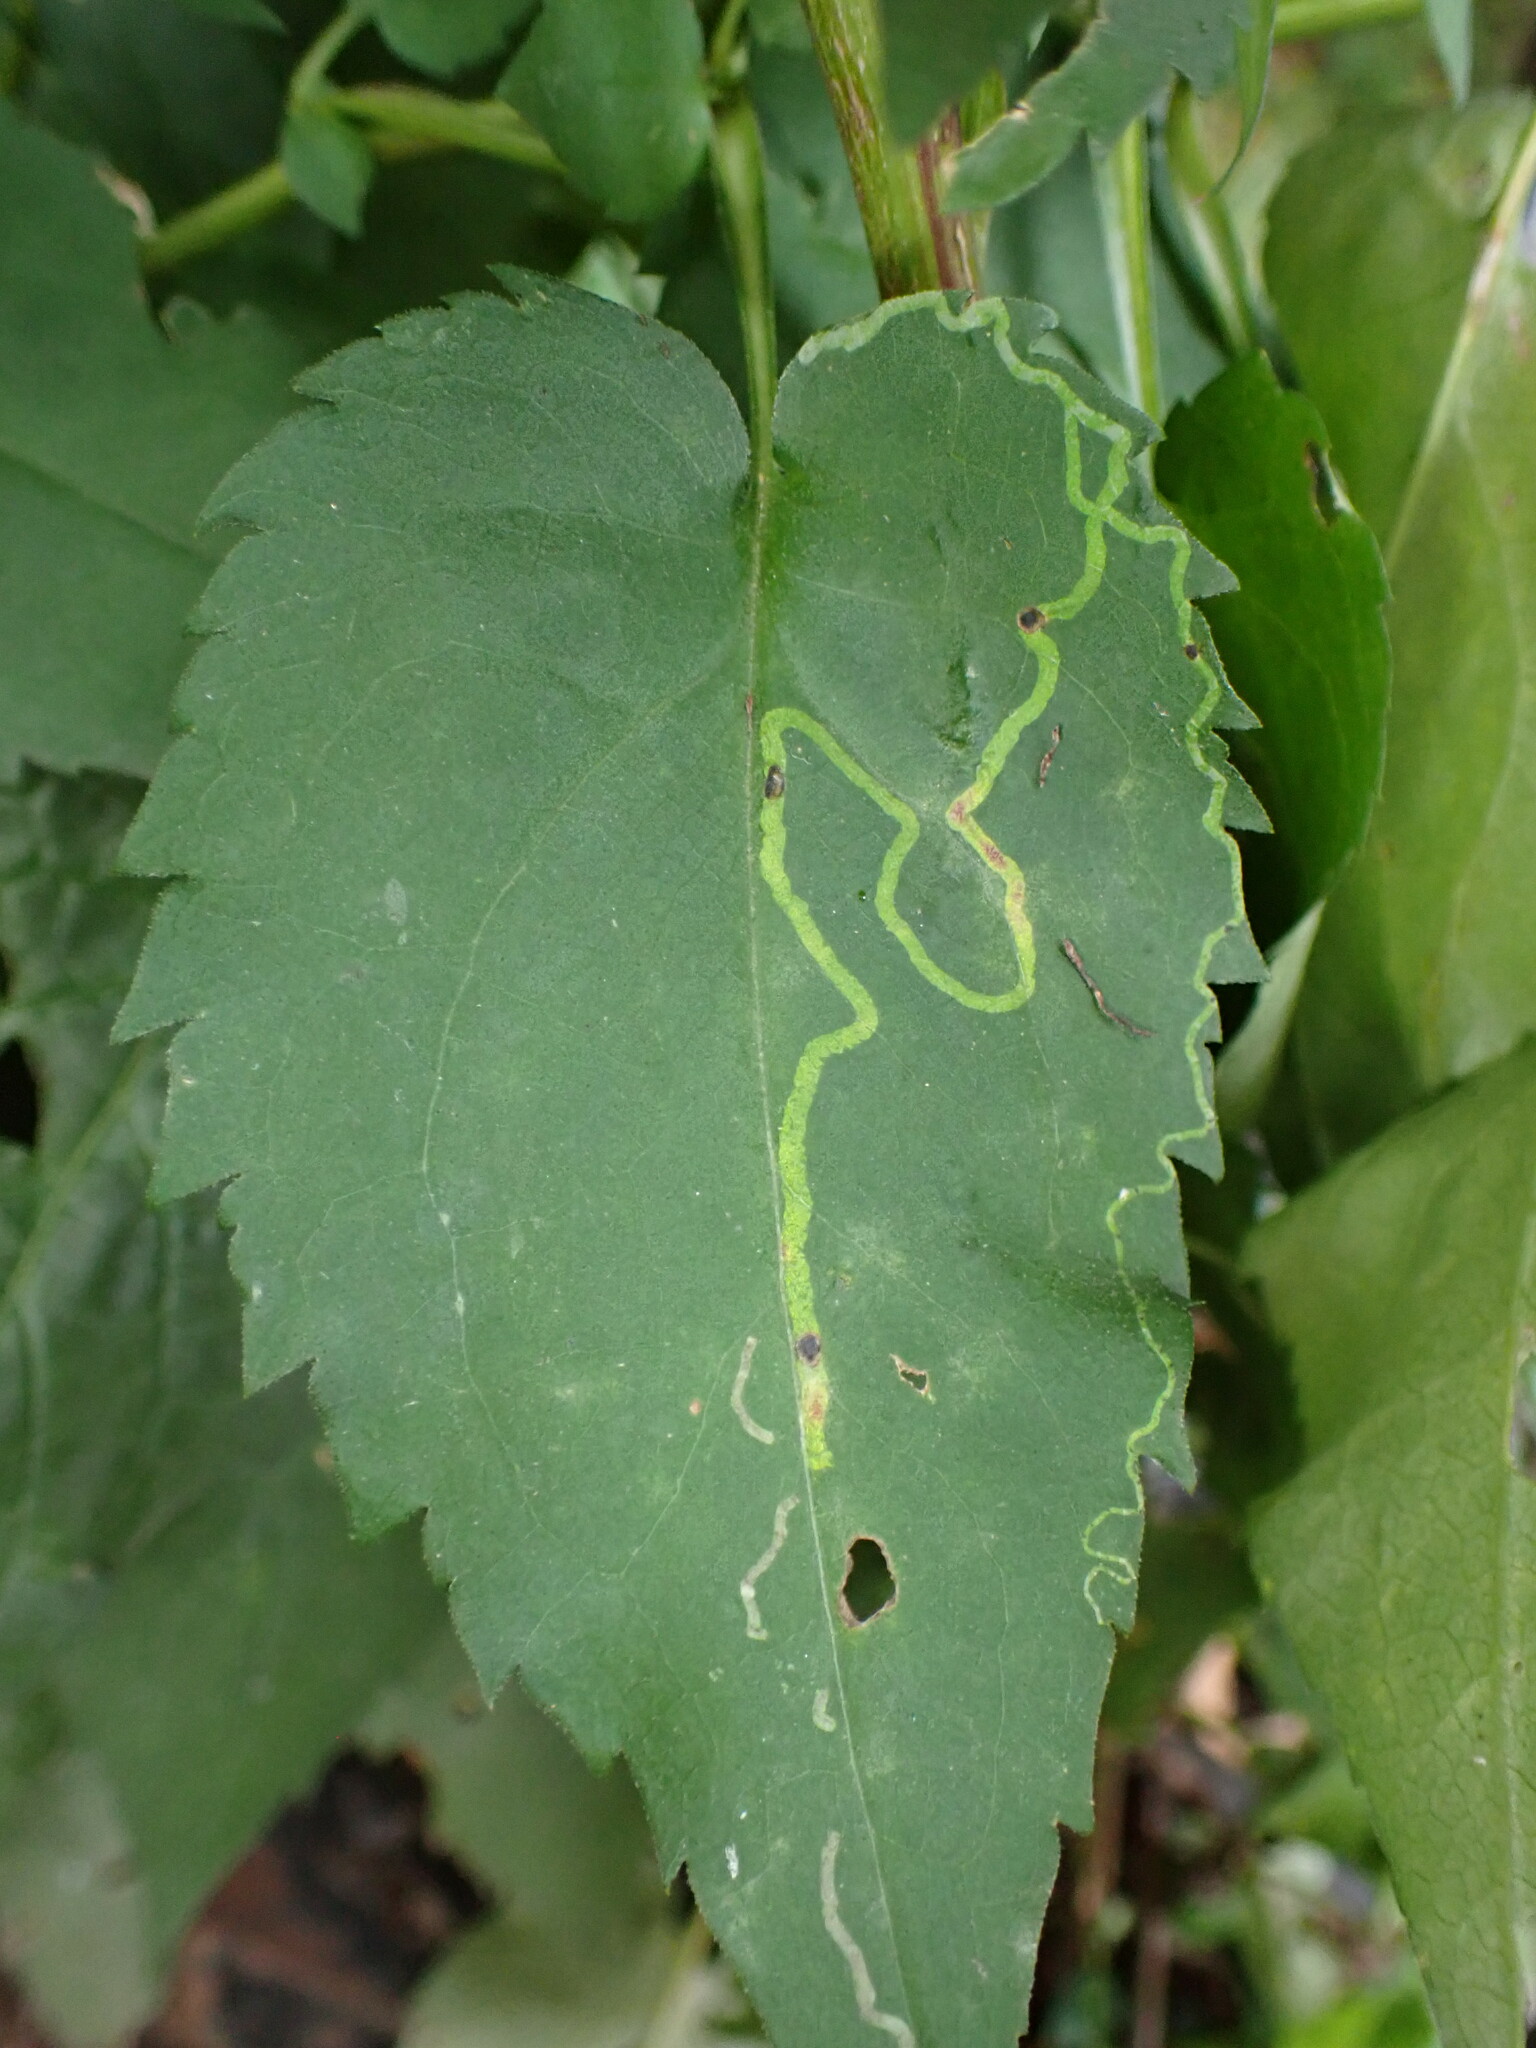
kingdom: Animalia
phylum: Arthropoda
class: Insecta
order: Diptera
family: Agromyzidae
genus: Ophiomyia
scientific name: Ophiomyia parda
